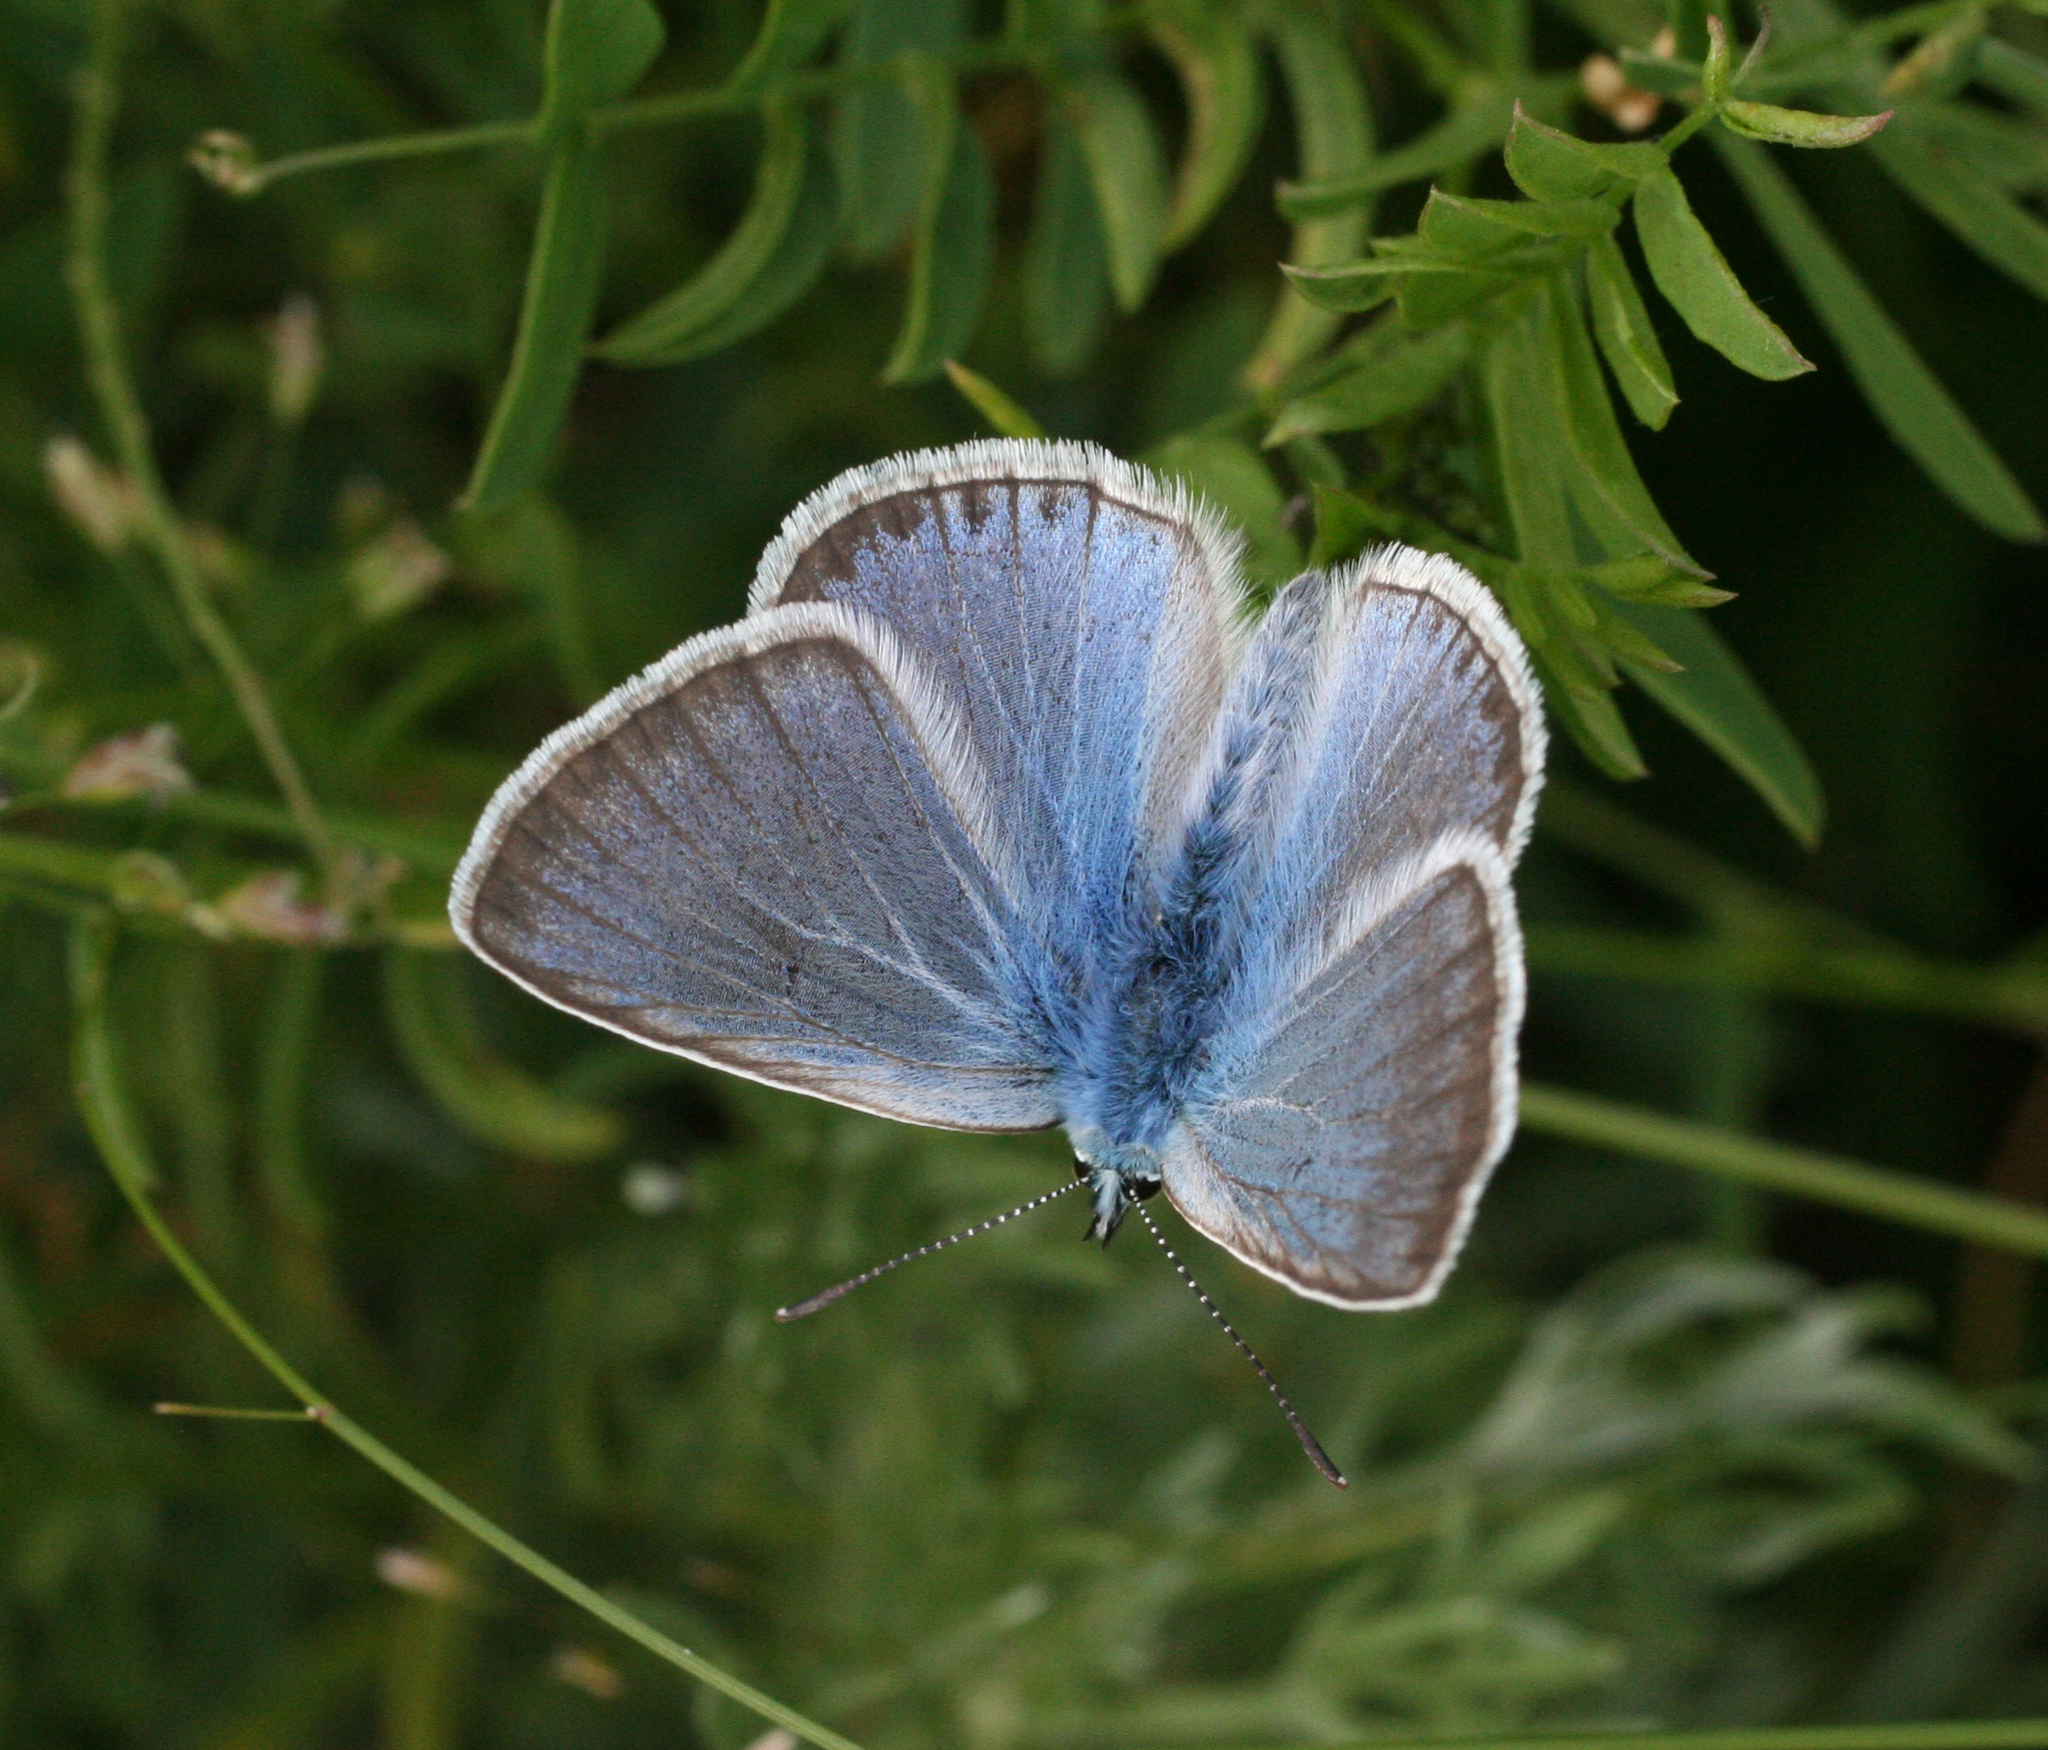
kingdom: Animalia
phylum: Arthropoda
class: Insecta
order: Lepidoptera
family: Lycaenidae
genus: Plebejus
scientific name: Plebejus amanda
